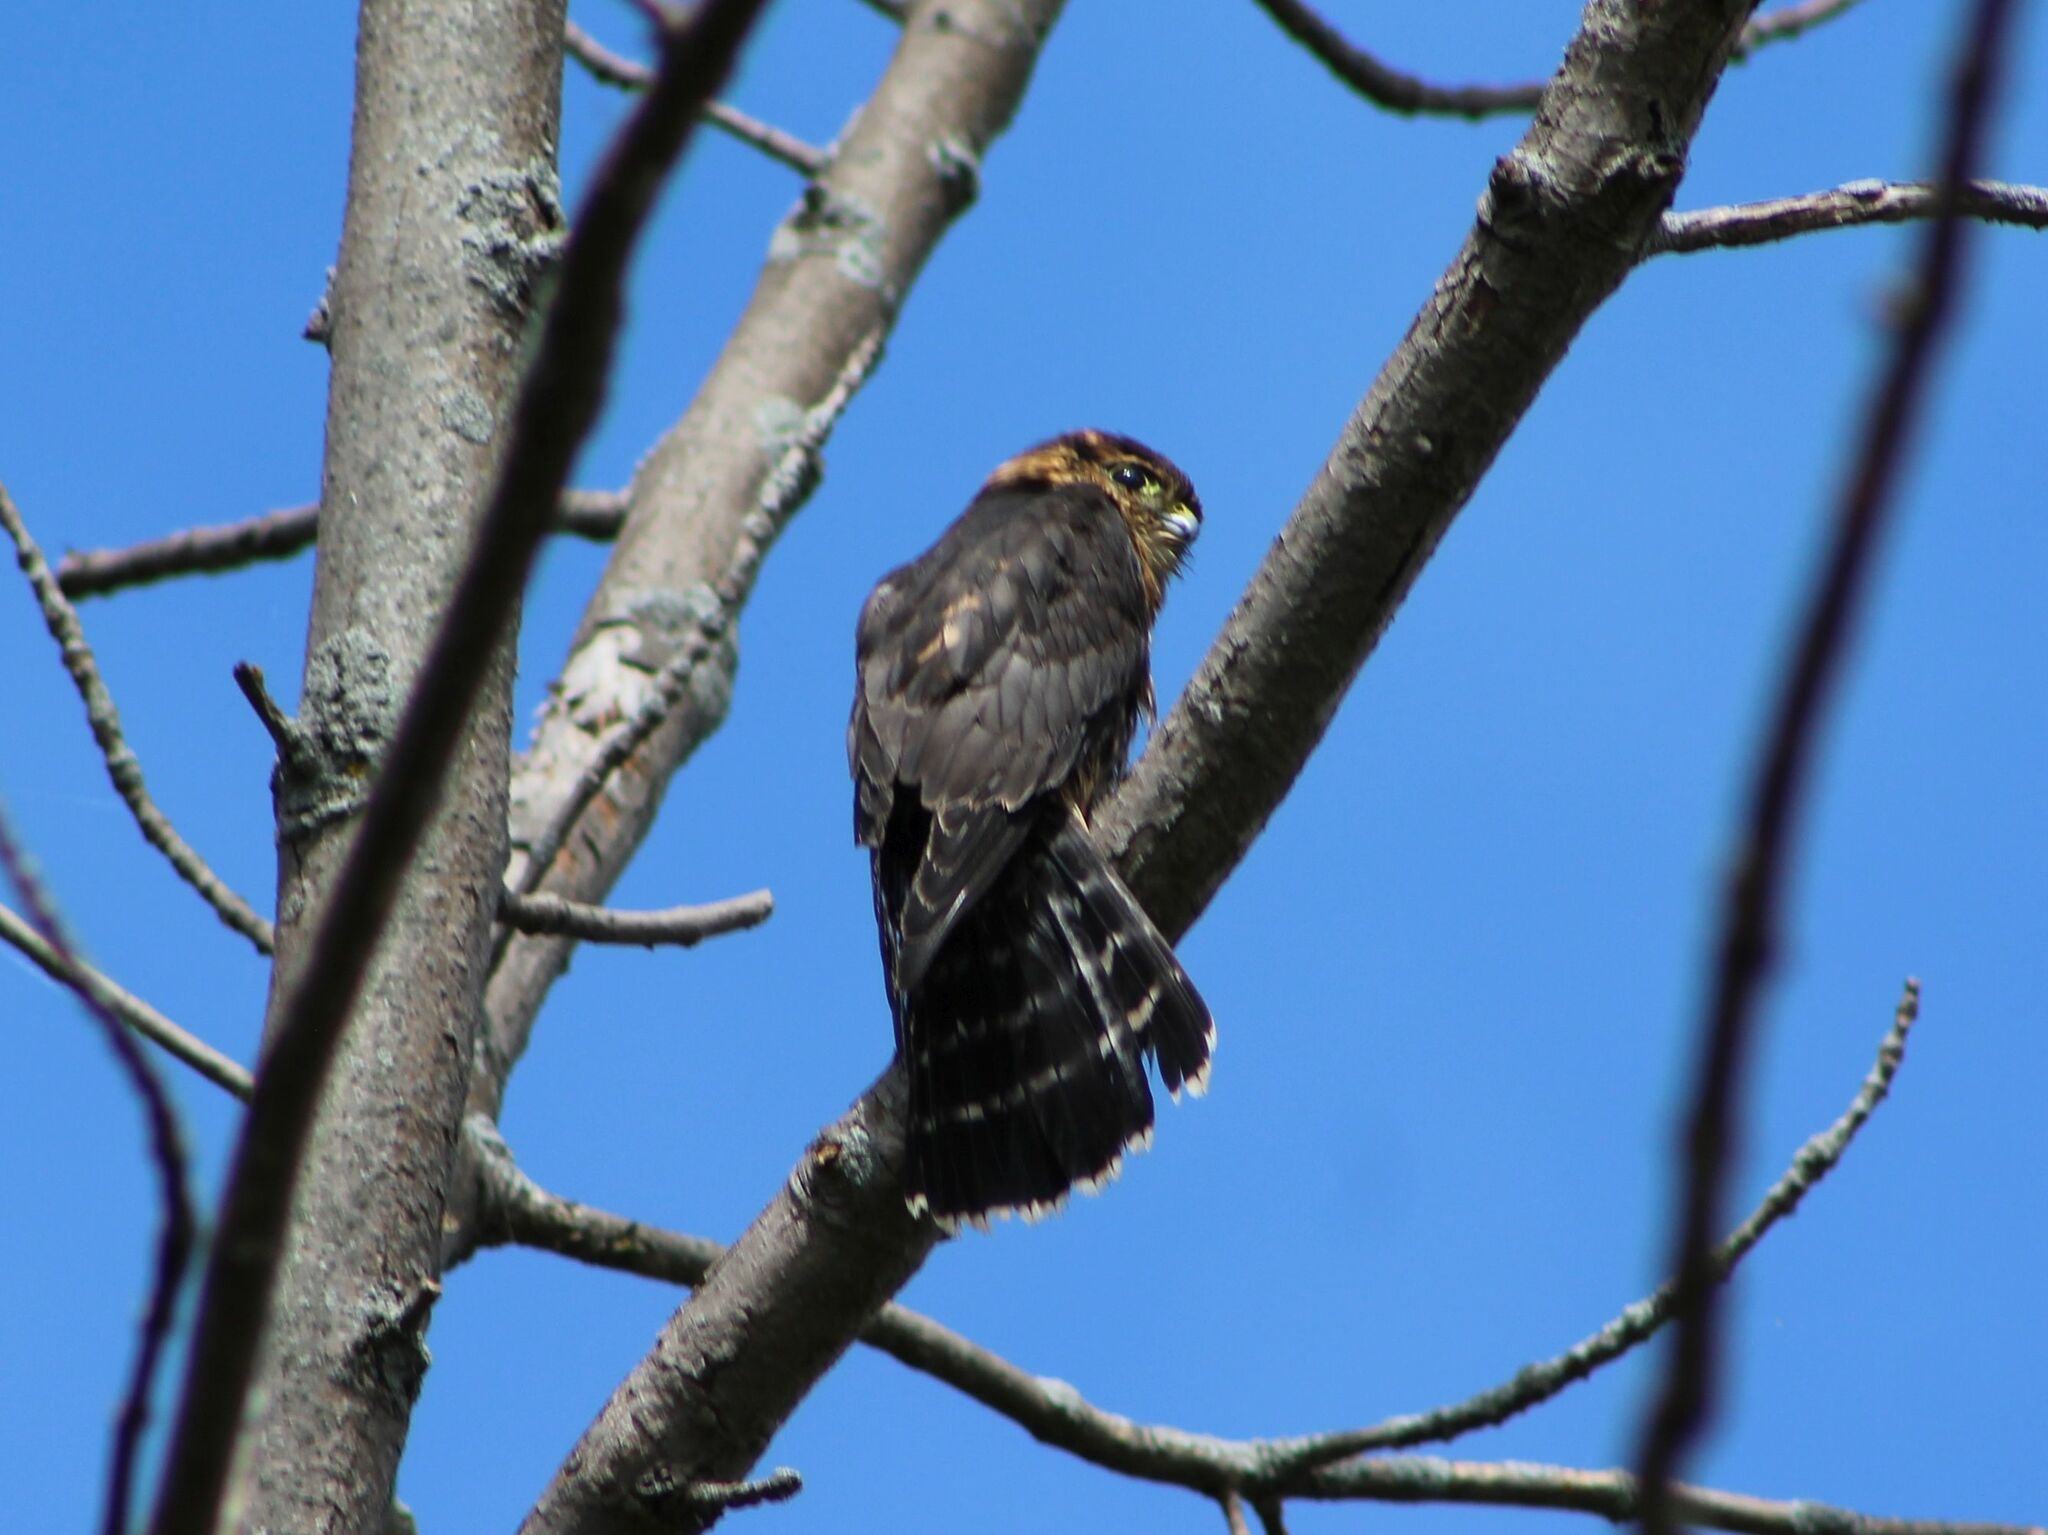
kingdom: Animalia
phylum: Chordata
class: Aves
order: Falconiformes
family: Falconidae
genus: Falco
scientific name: Falco columbarius
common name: Merlin
